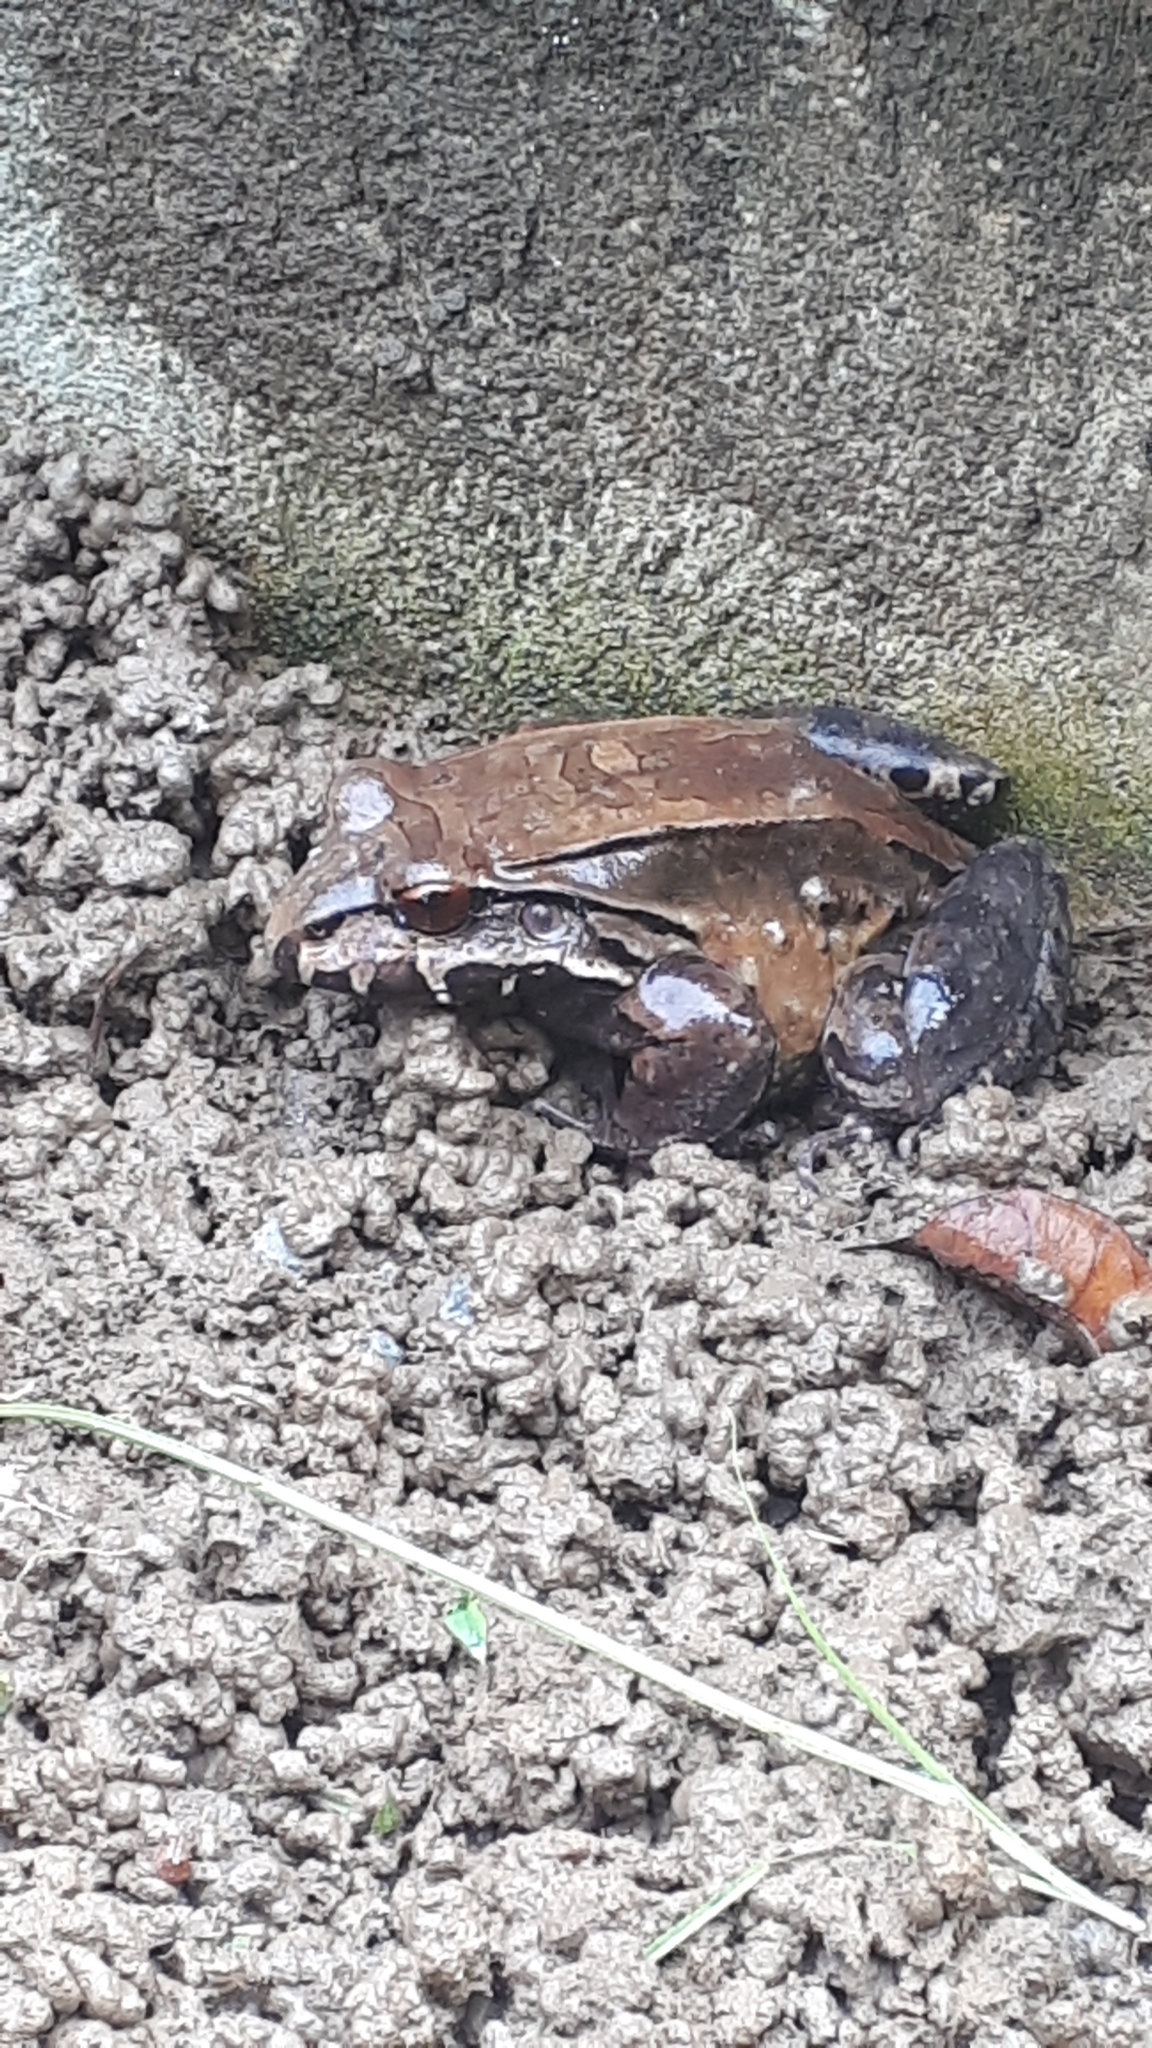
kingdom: Animalia
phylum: Chordata
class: Amphibia
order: Anura
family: Leptodactylidae
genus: Leptodactylus
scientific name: Leptodactylus savagei
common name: Savage's thin-toed frog
